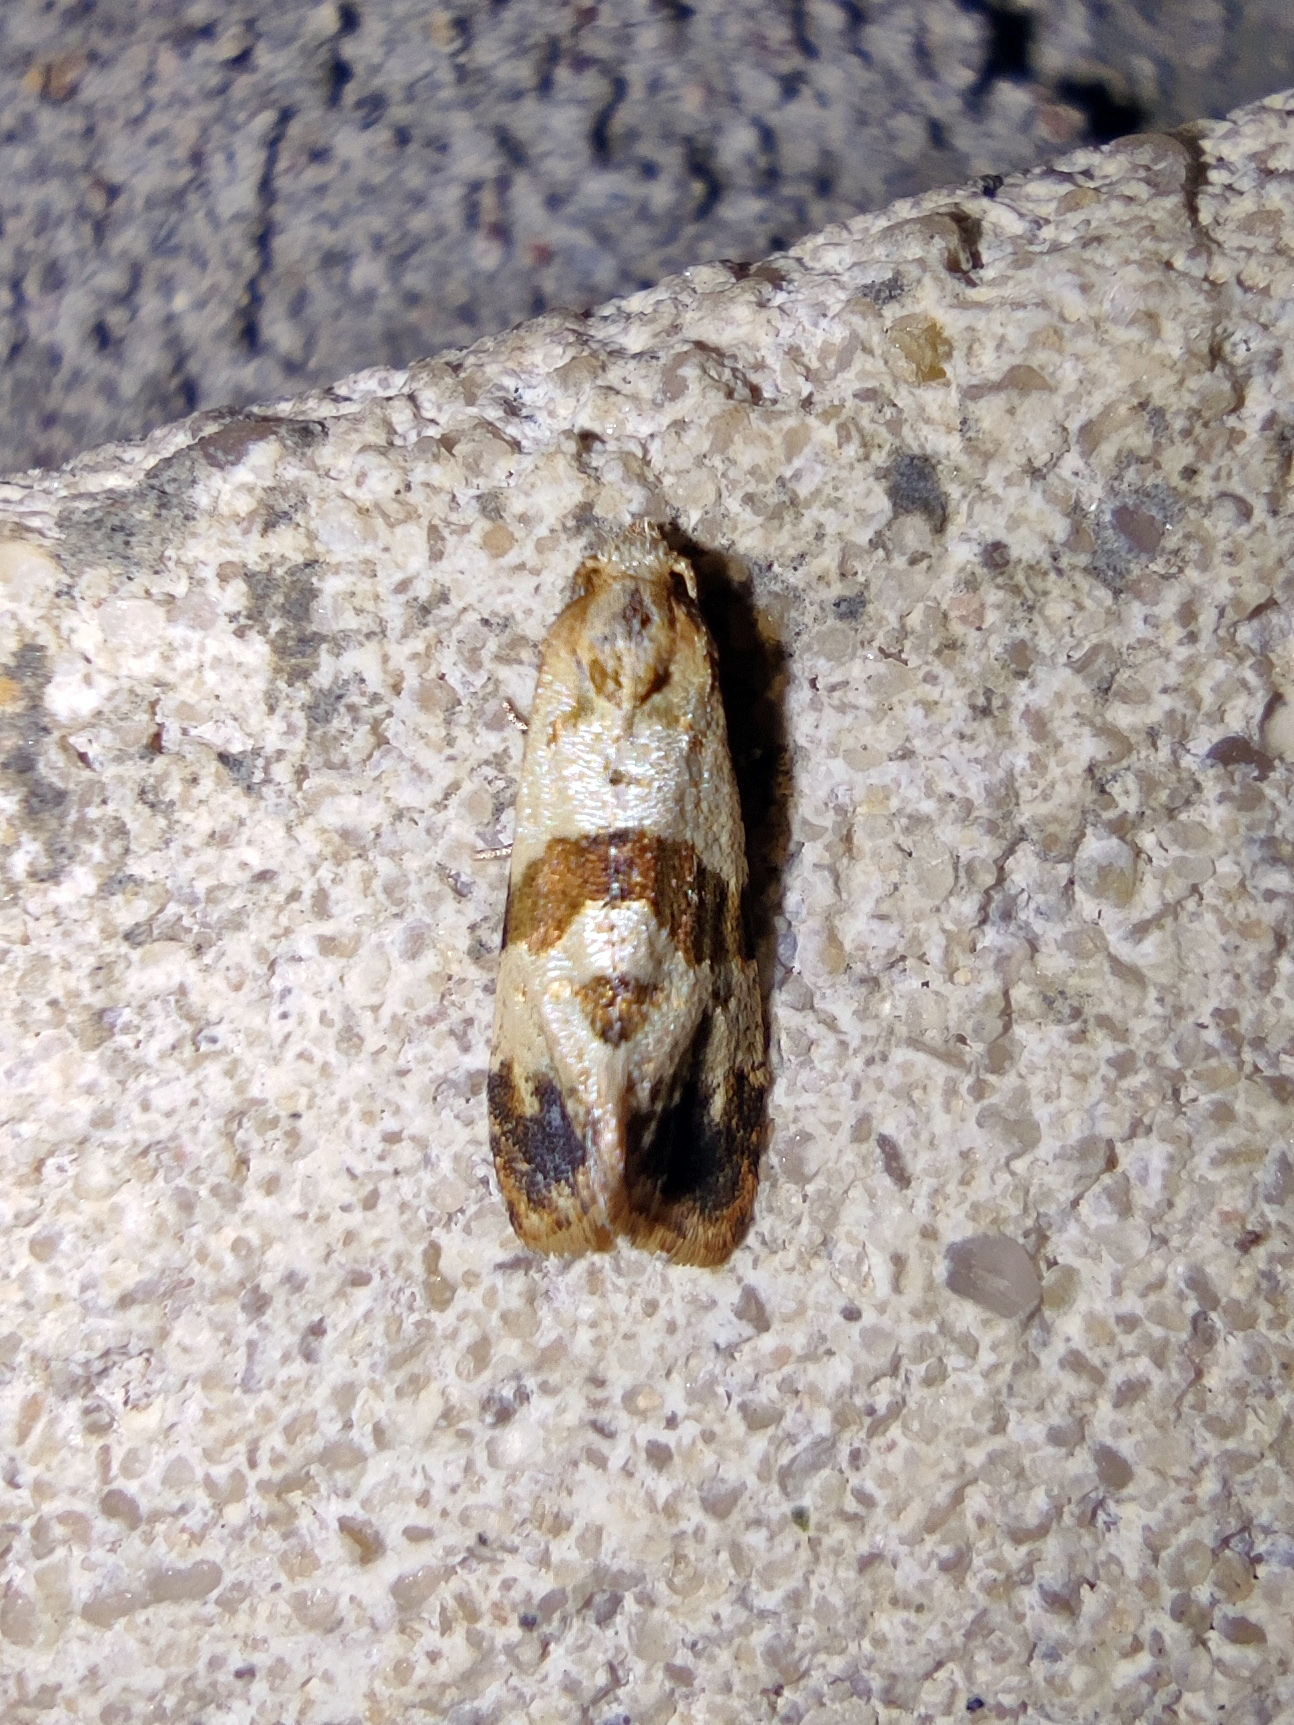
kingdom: Animalia
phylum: Arthropoda
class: Insecta
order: Lepidoptera
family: Tortricidae
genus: Phalonidia
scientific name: Phalonidia contractana
